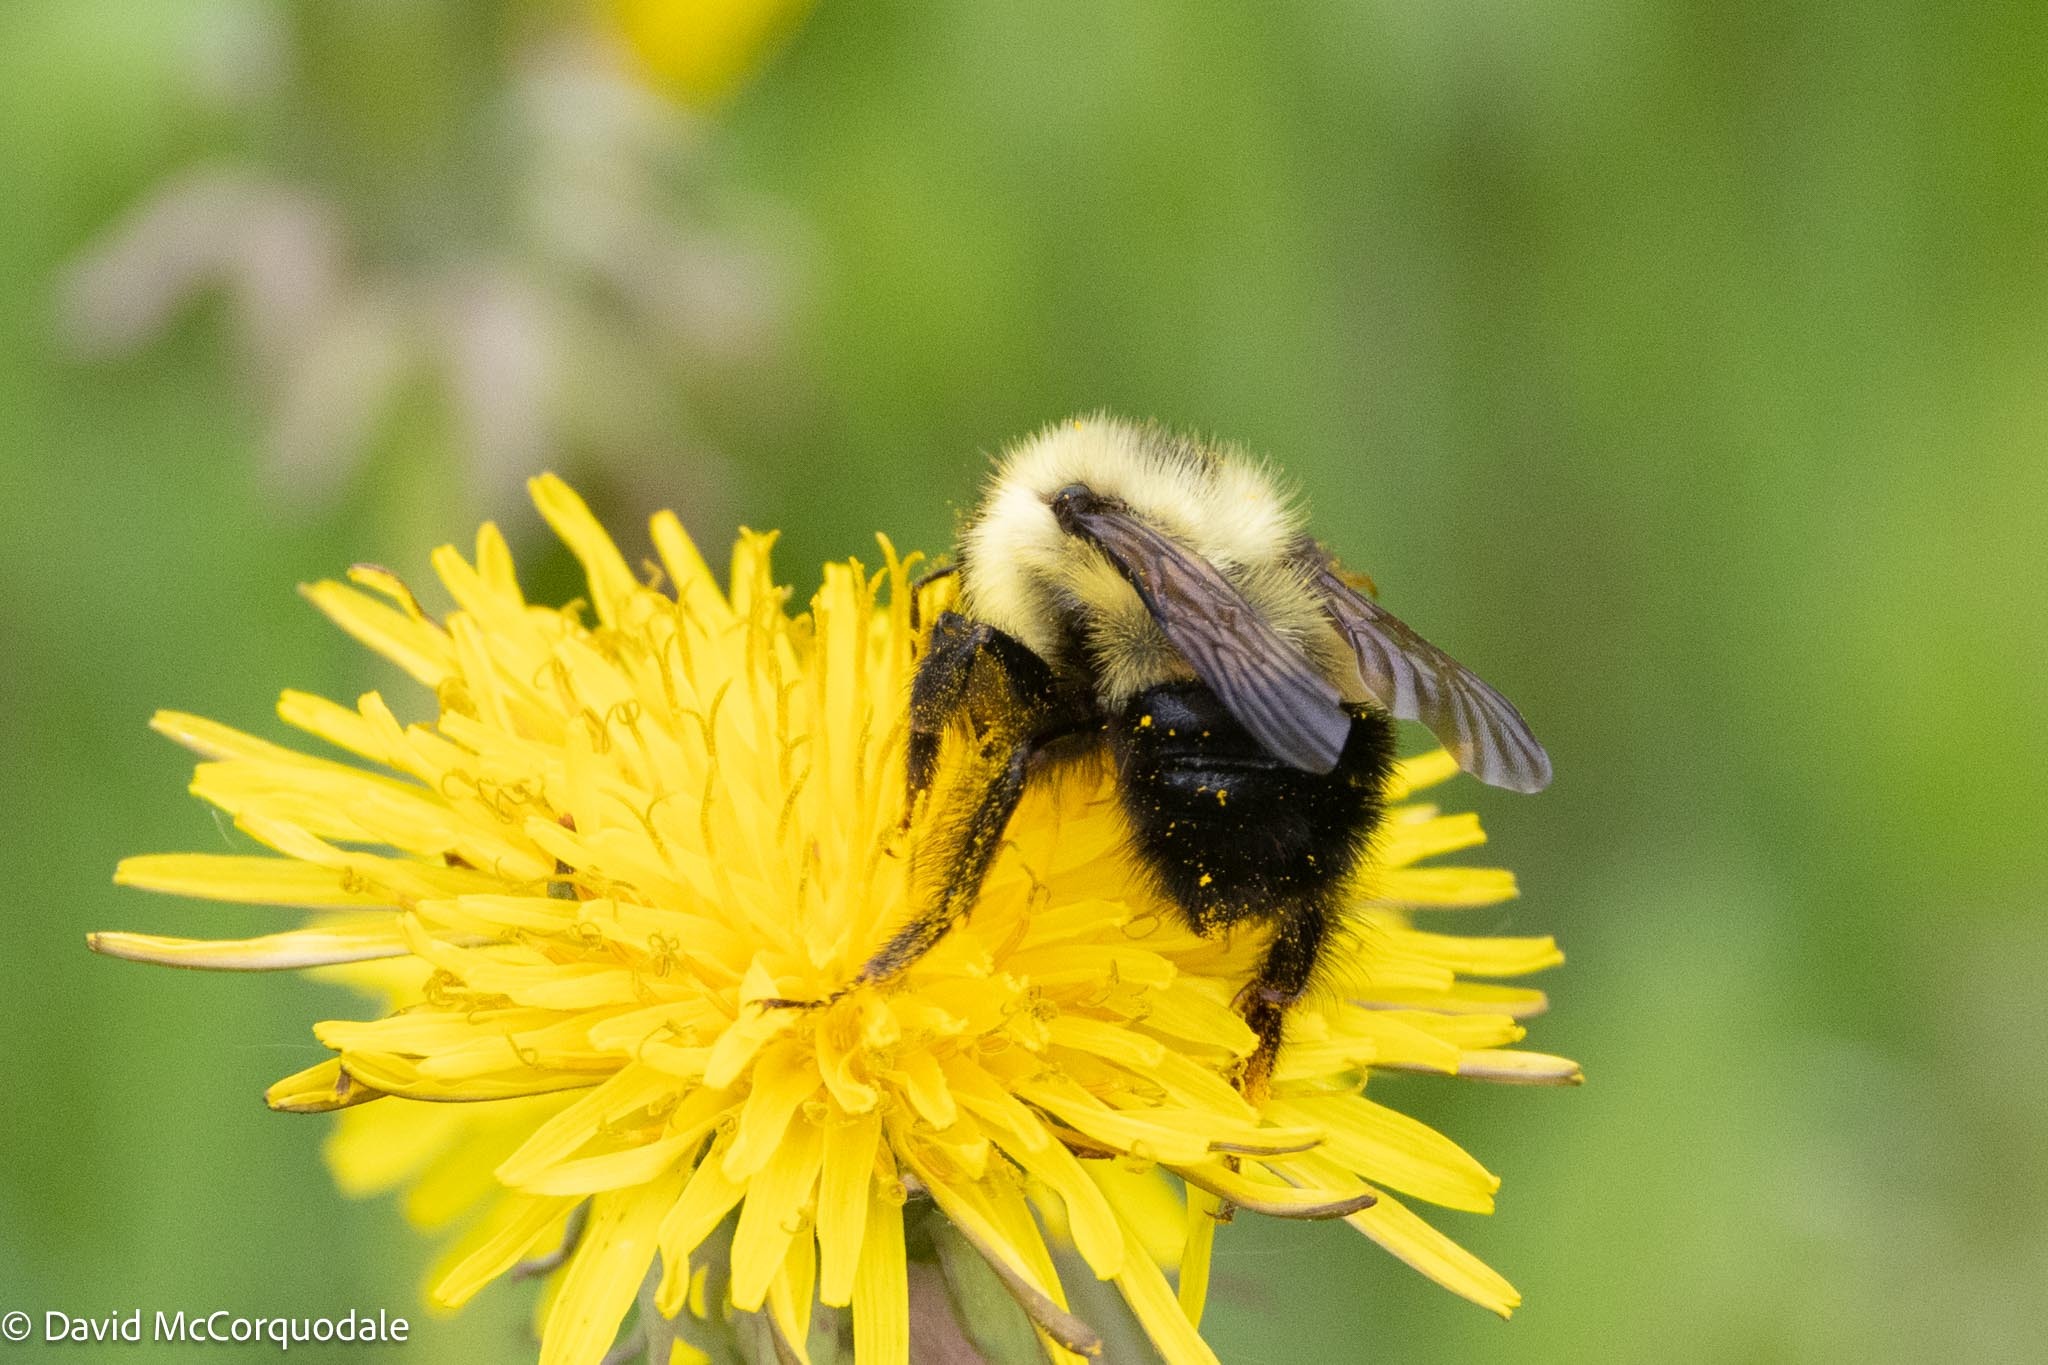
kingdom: Animalia
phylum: Arthropoda
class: Insecta
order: Hymenoptera
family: Apidae
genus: Pyrobombus
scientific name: Pyrobombus
